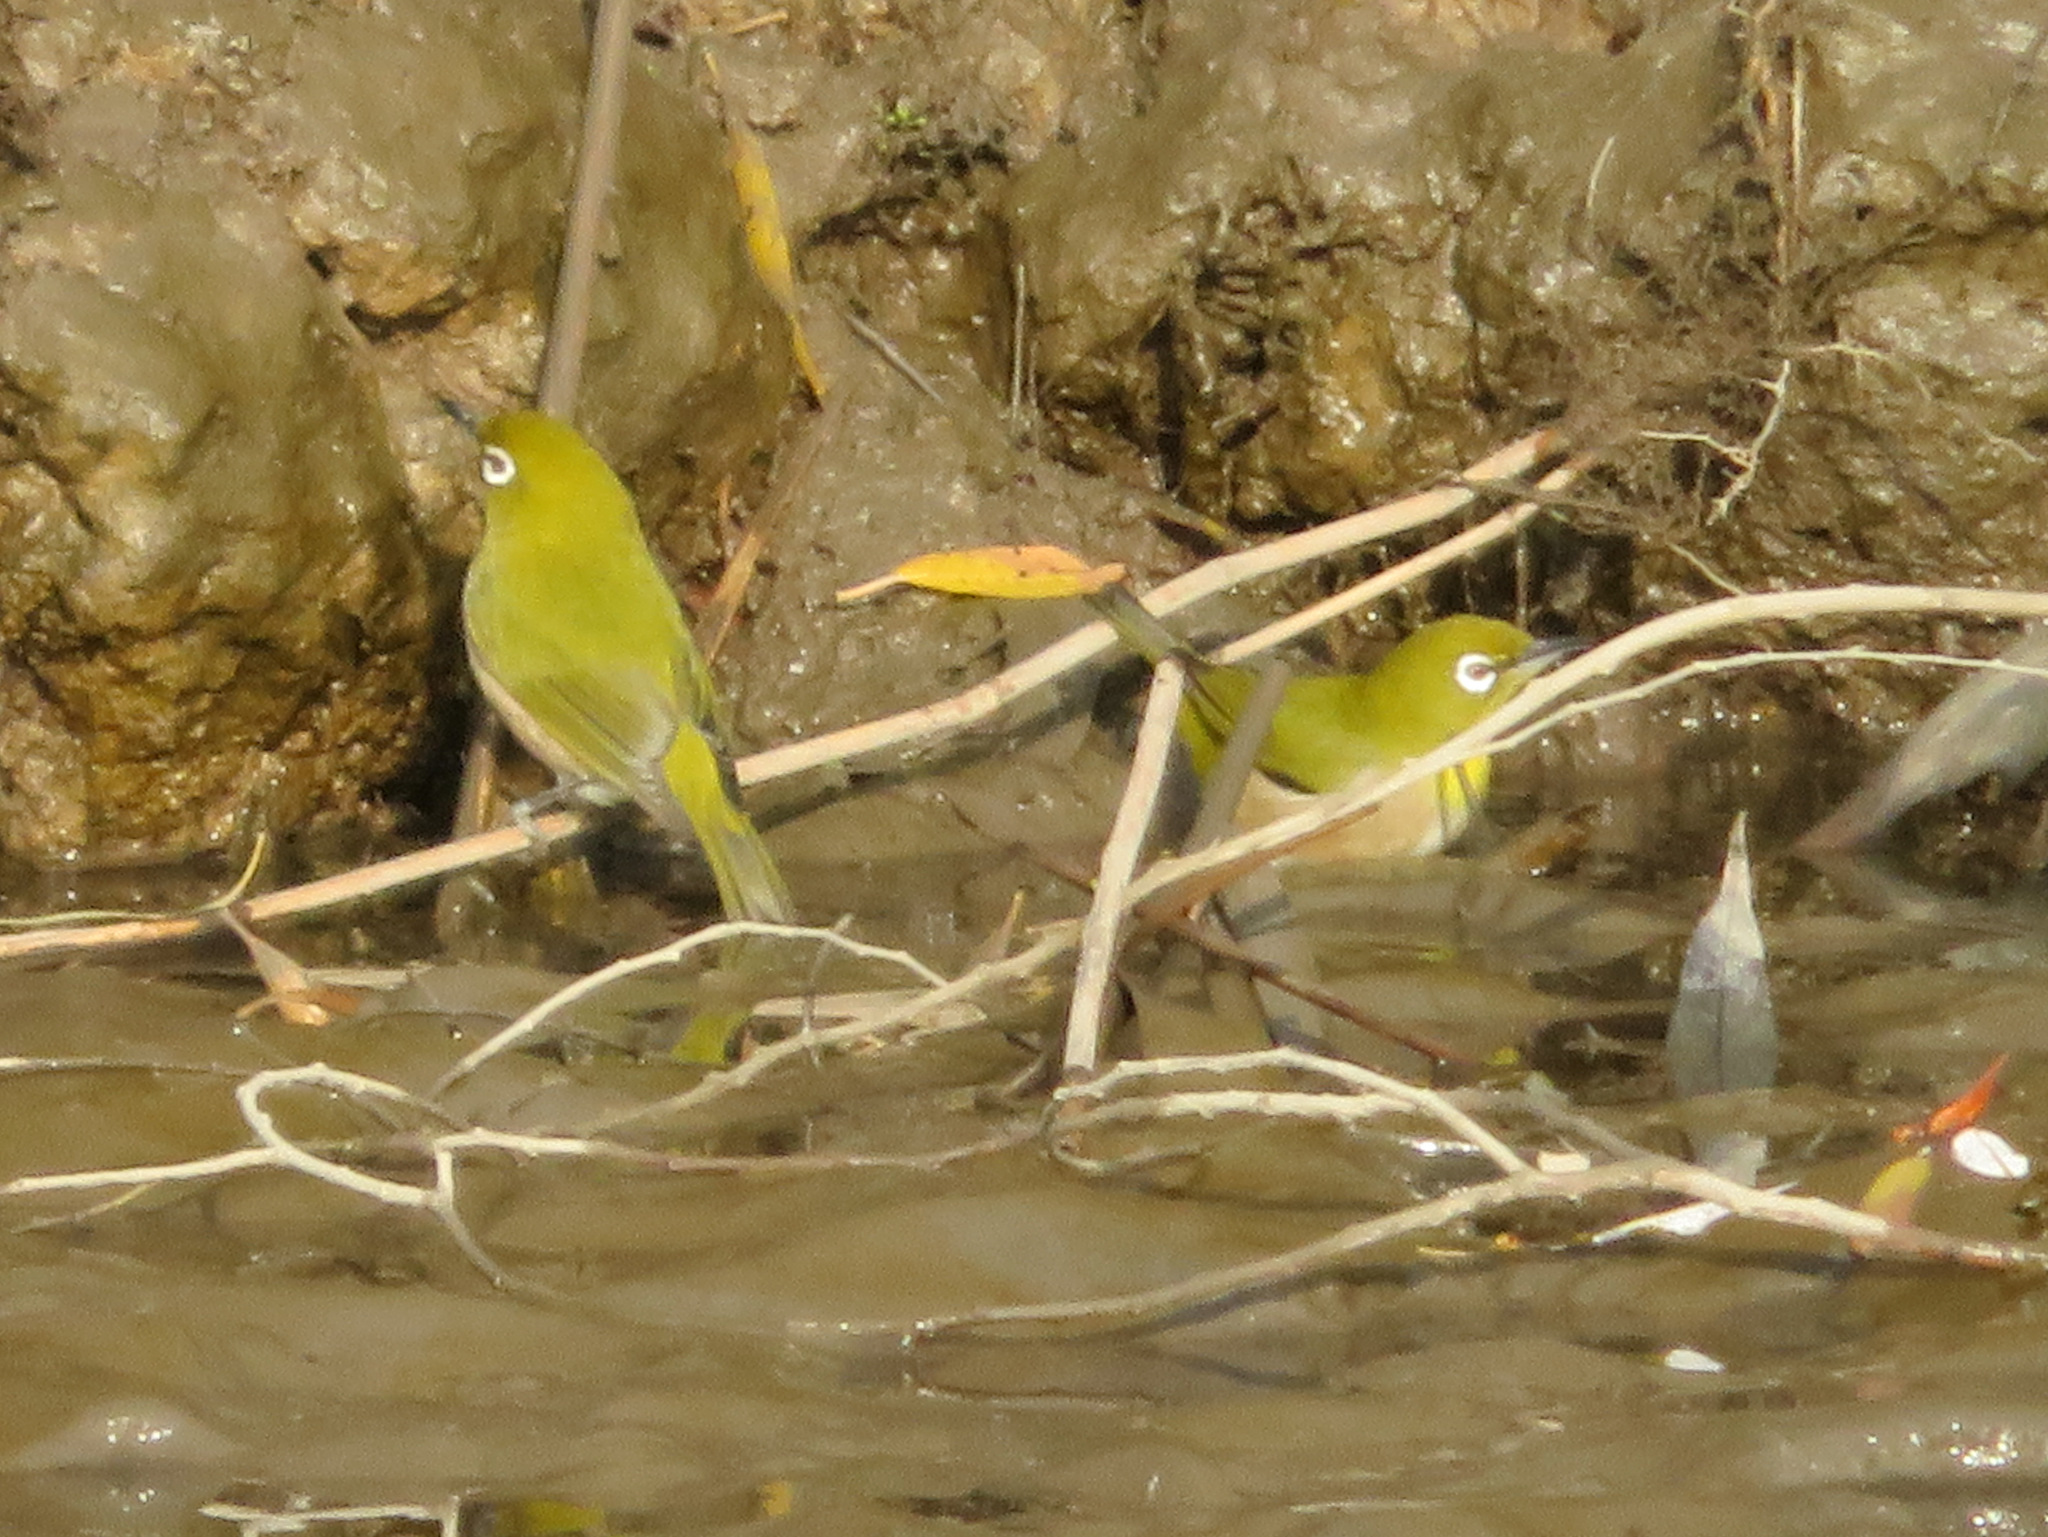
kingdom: Animalia
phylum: Chordata
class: Aves
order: Passeriformes
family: Zosteropidae
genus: Zosterops
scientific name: Zosterops japonicus
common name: Japanese white-eye
